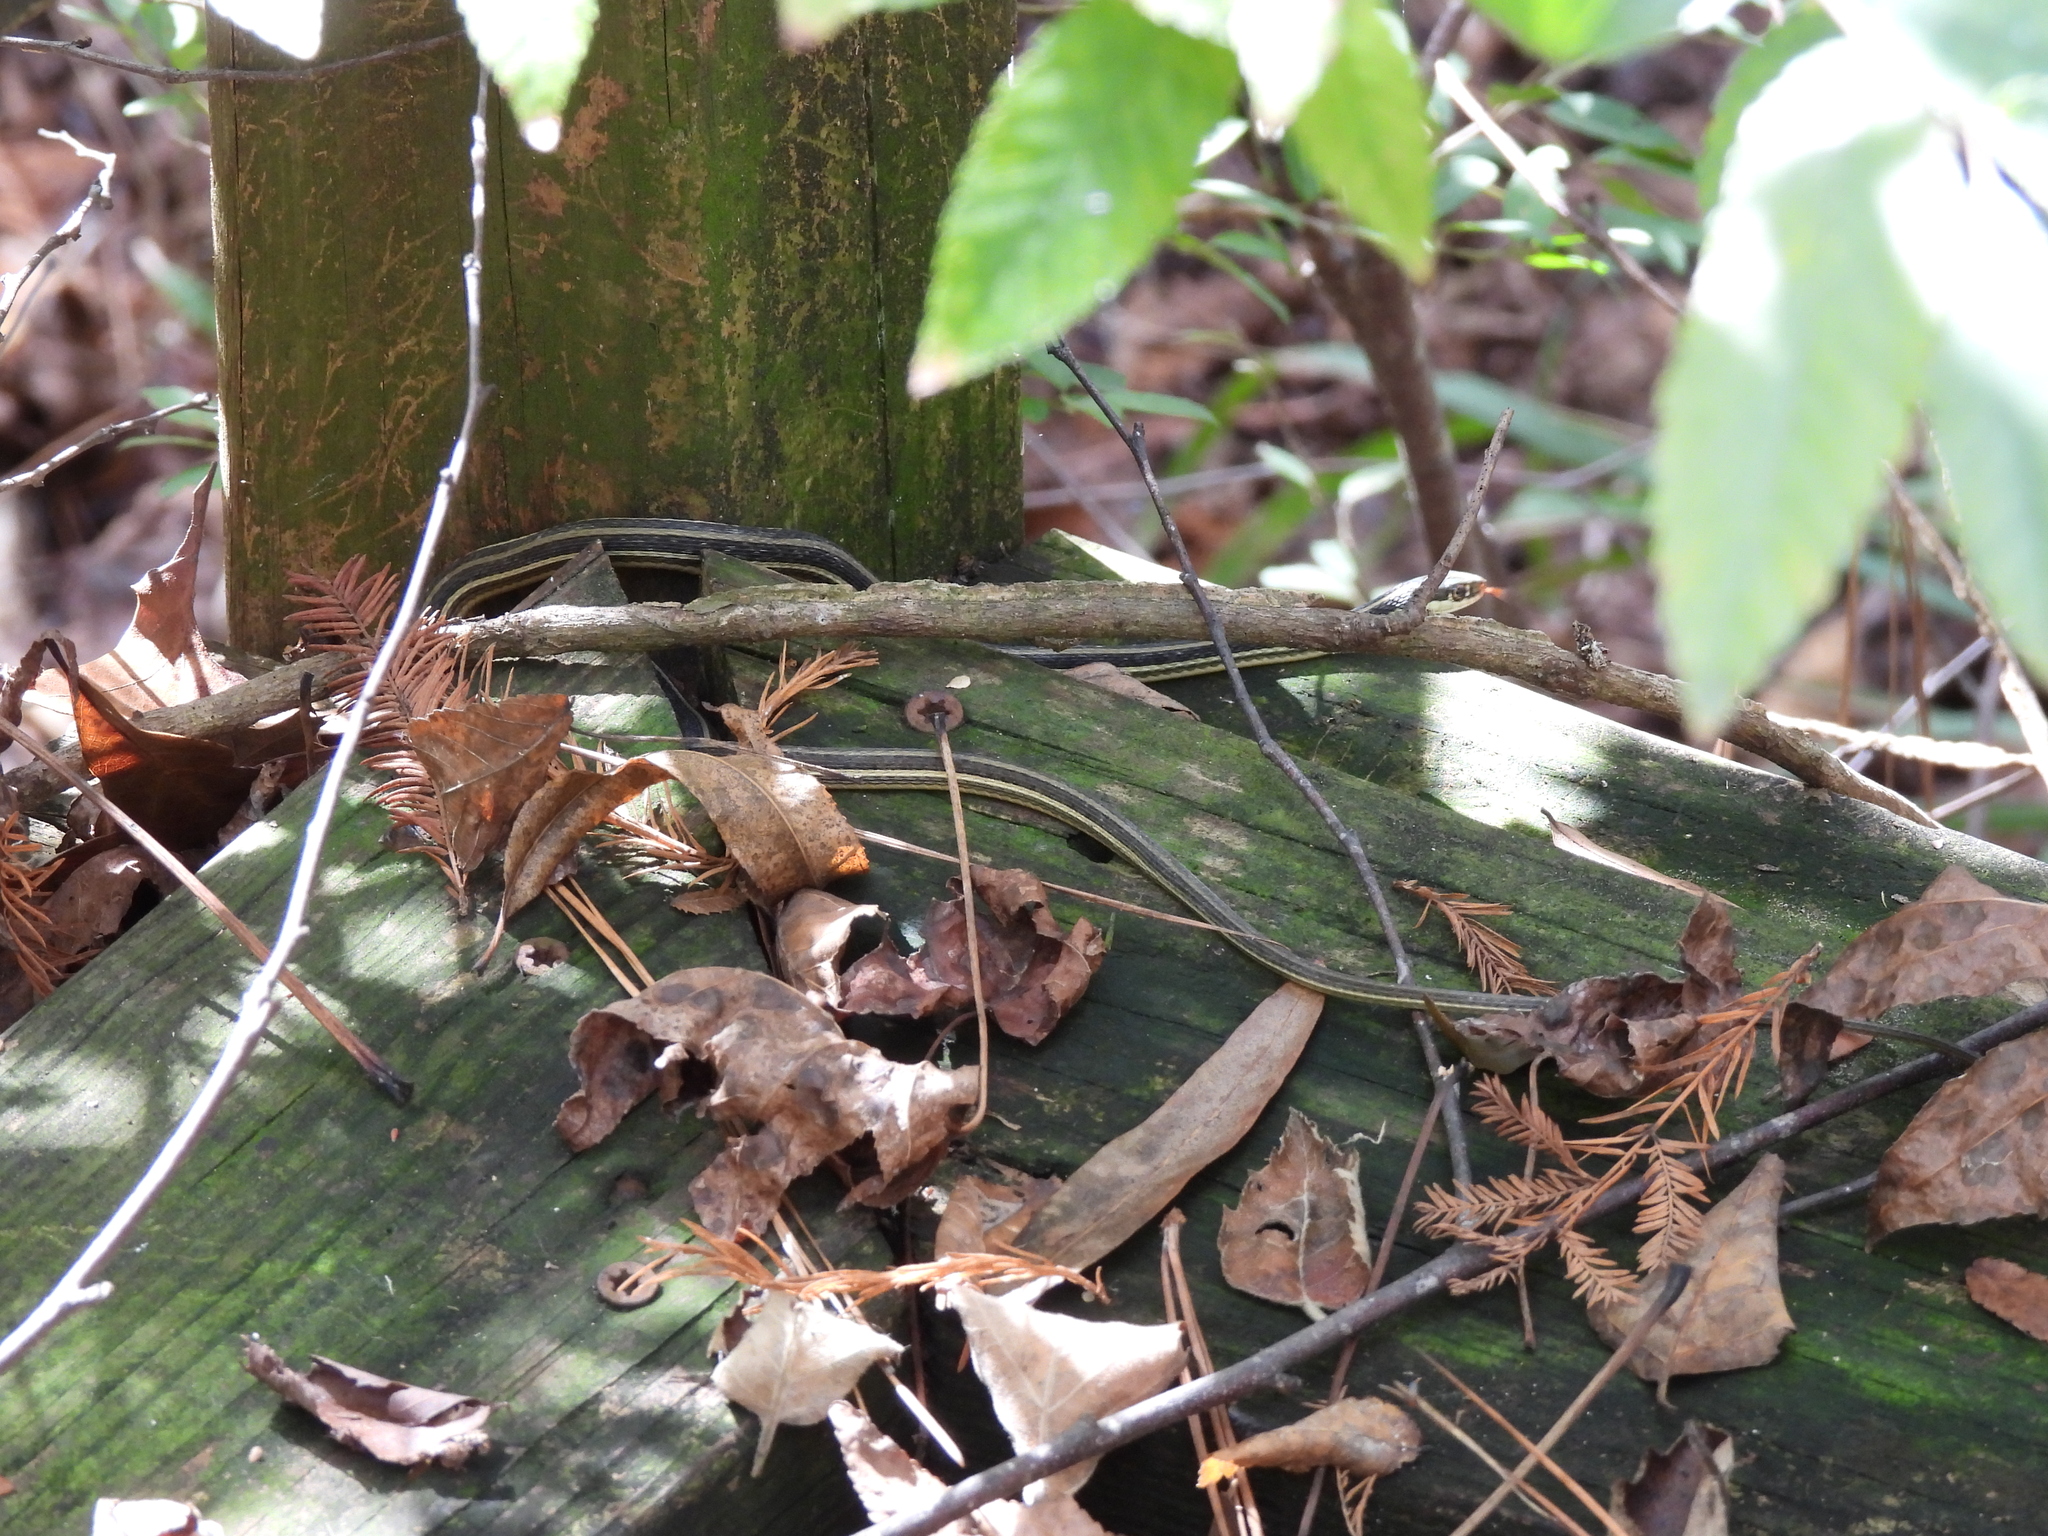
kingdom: Animalia
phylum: Chordata
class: Squamata
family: Colubridae
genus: Thamnophis
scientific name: Thamnophis proximus
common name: Western ribbon snake
